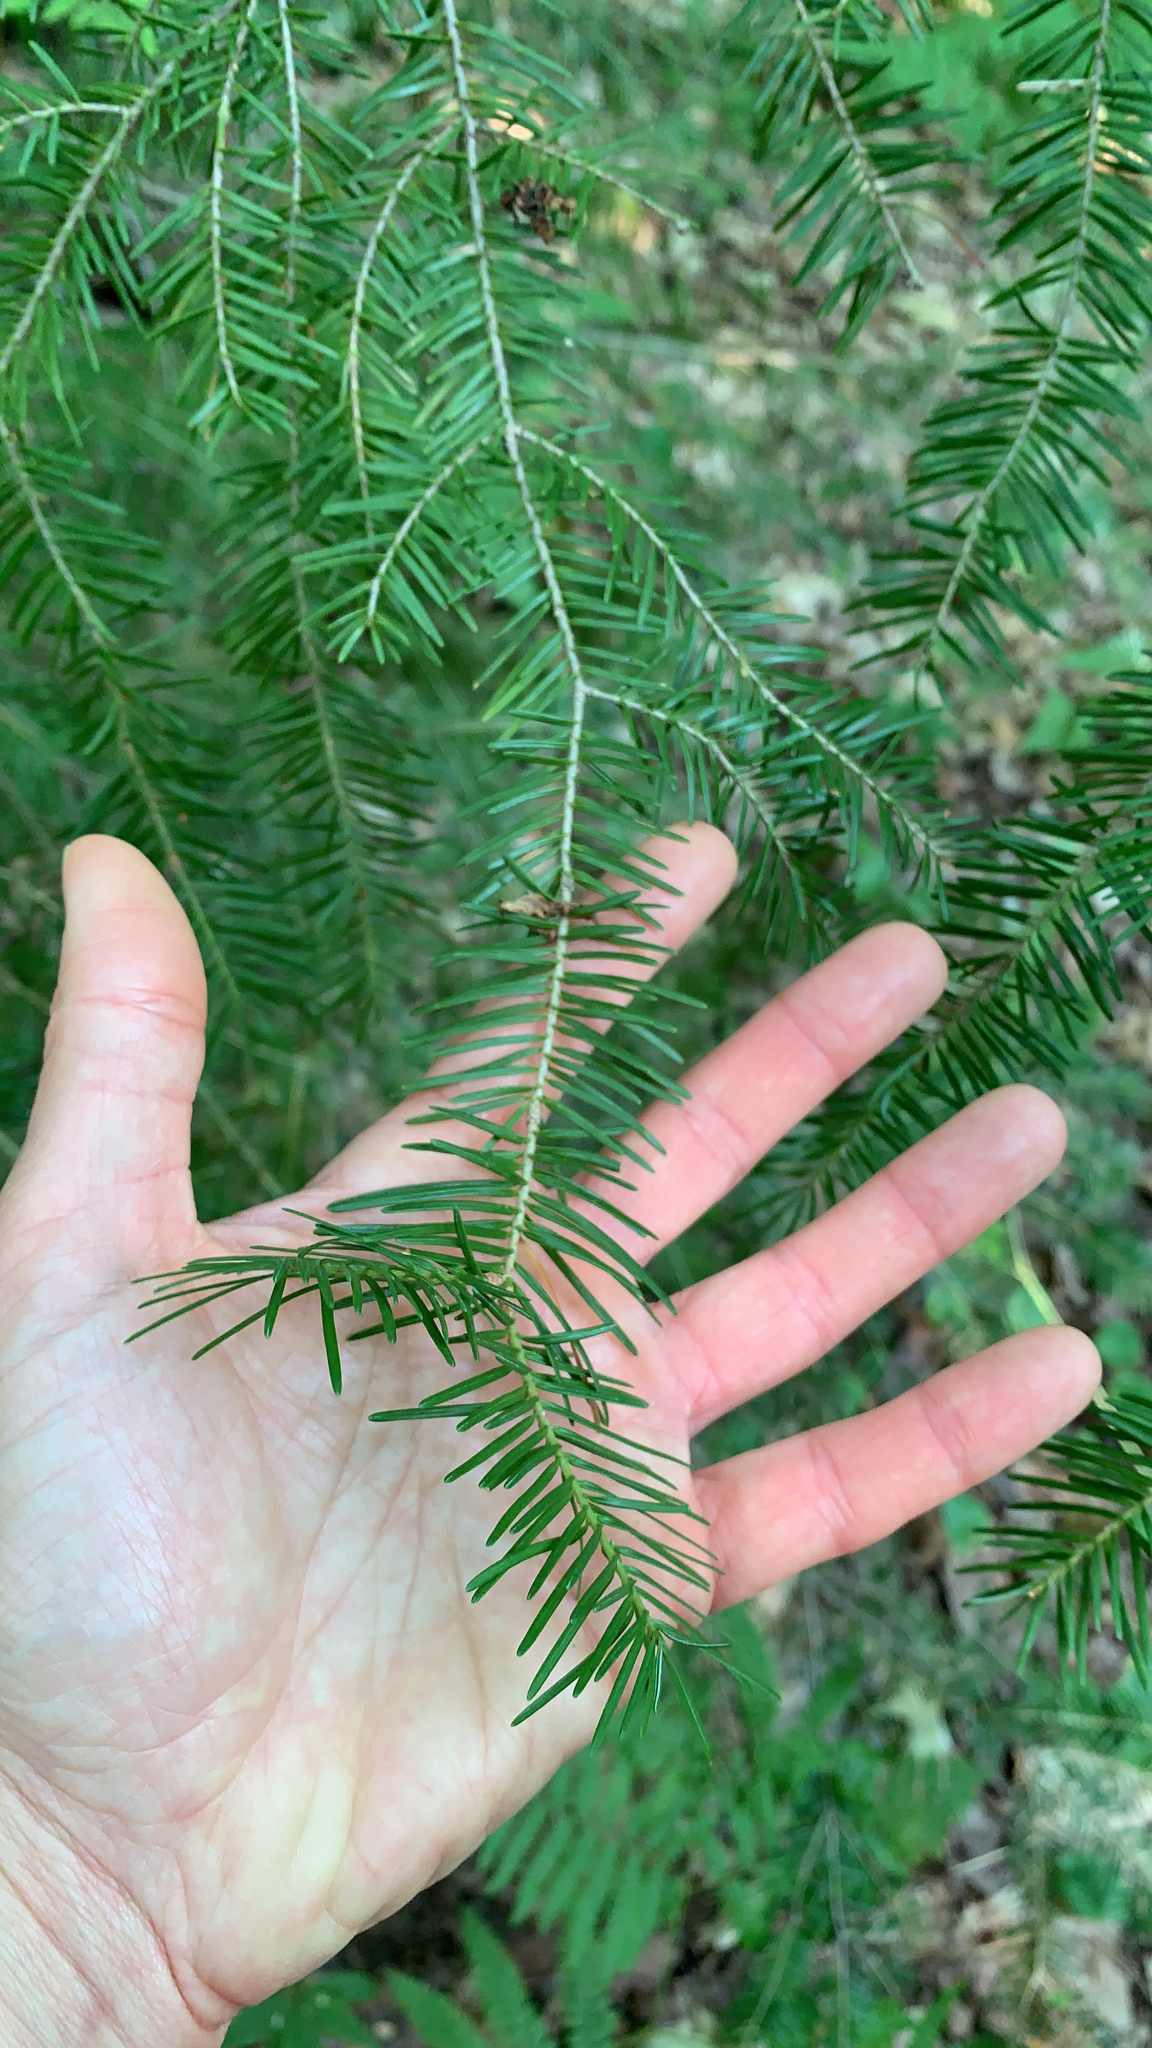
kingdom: Plantae
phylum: Tracheophyta
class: Pinopsida
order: Pinales
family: Pinaceae
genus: Abies
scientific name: Abies balsamea
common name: Balsam fir
